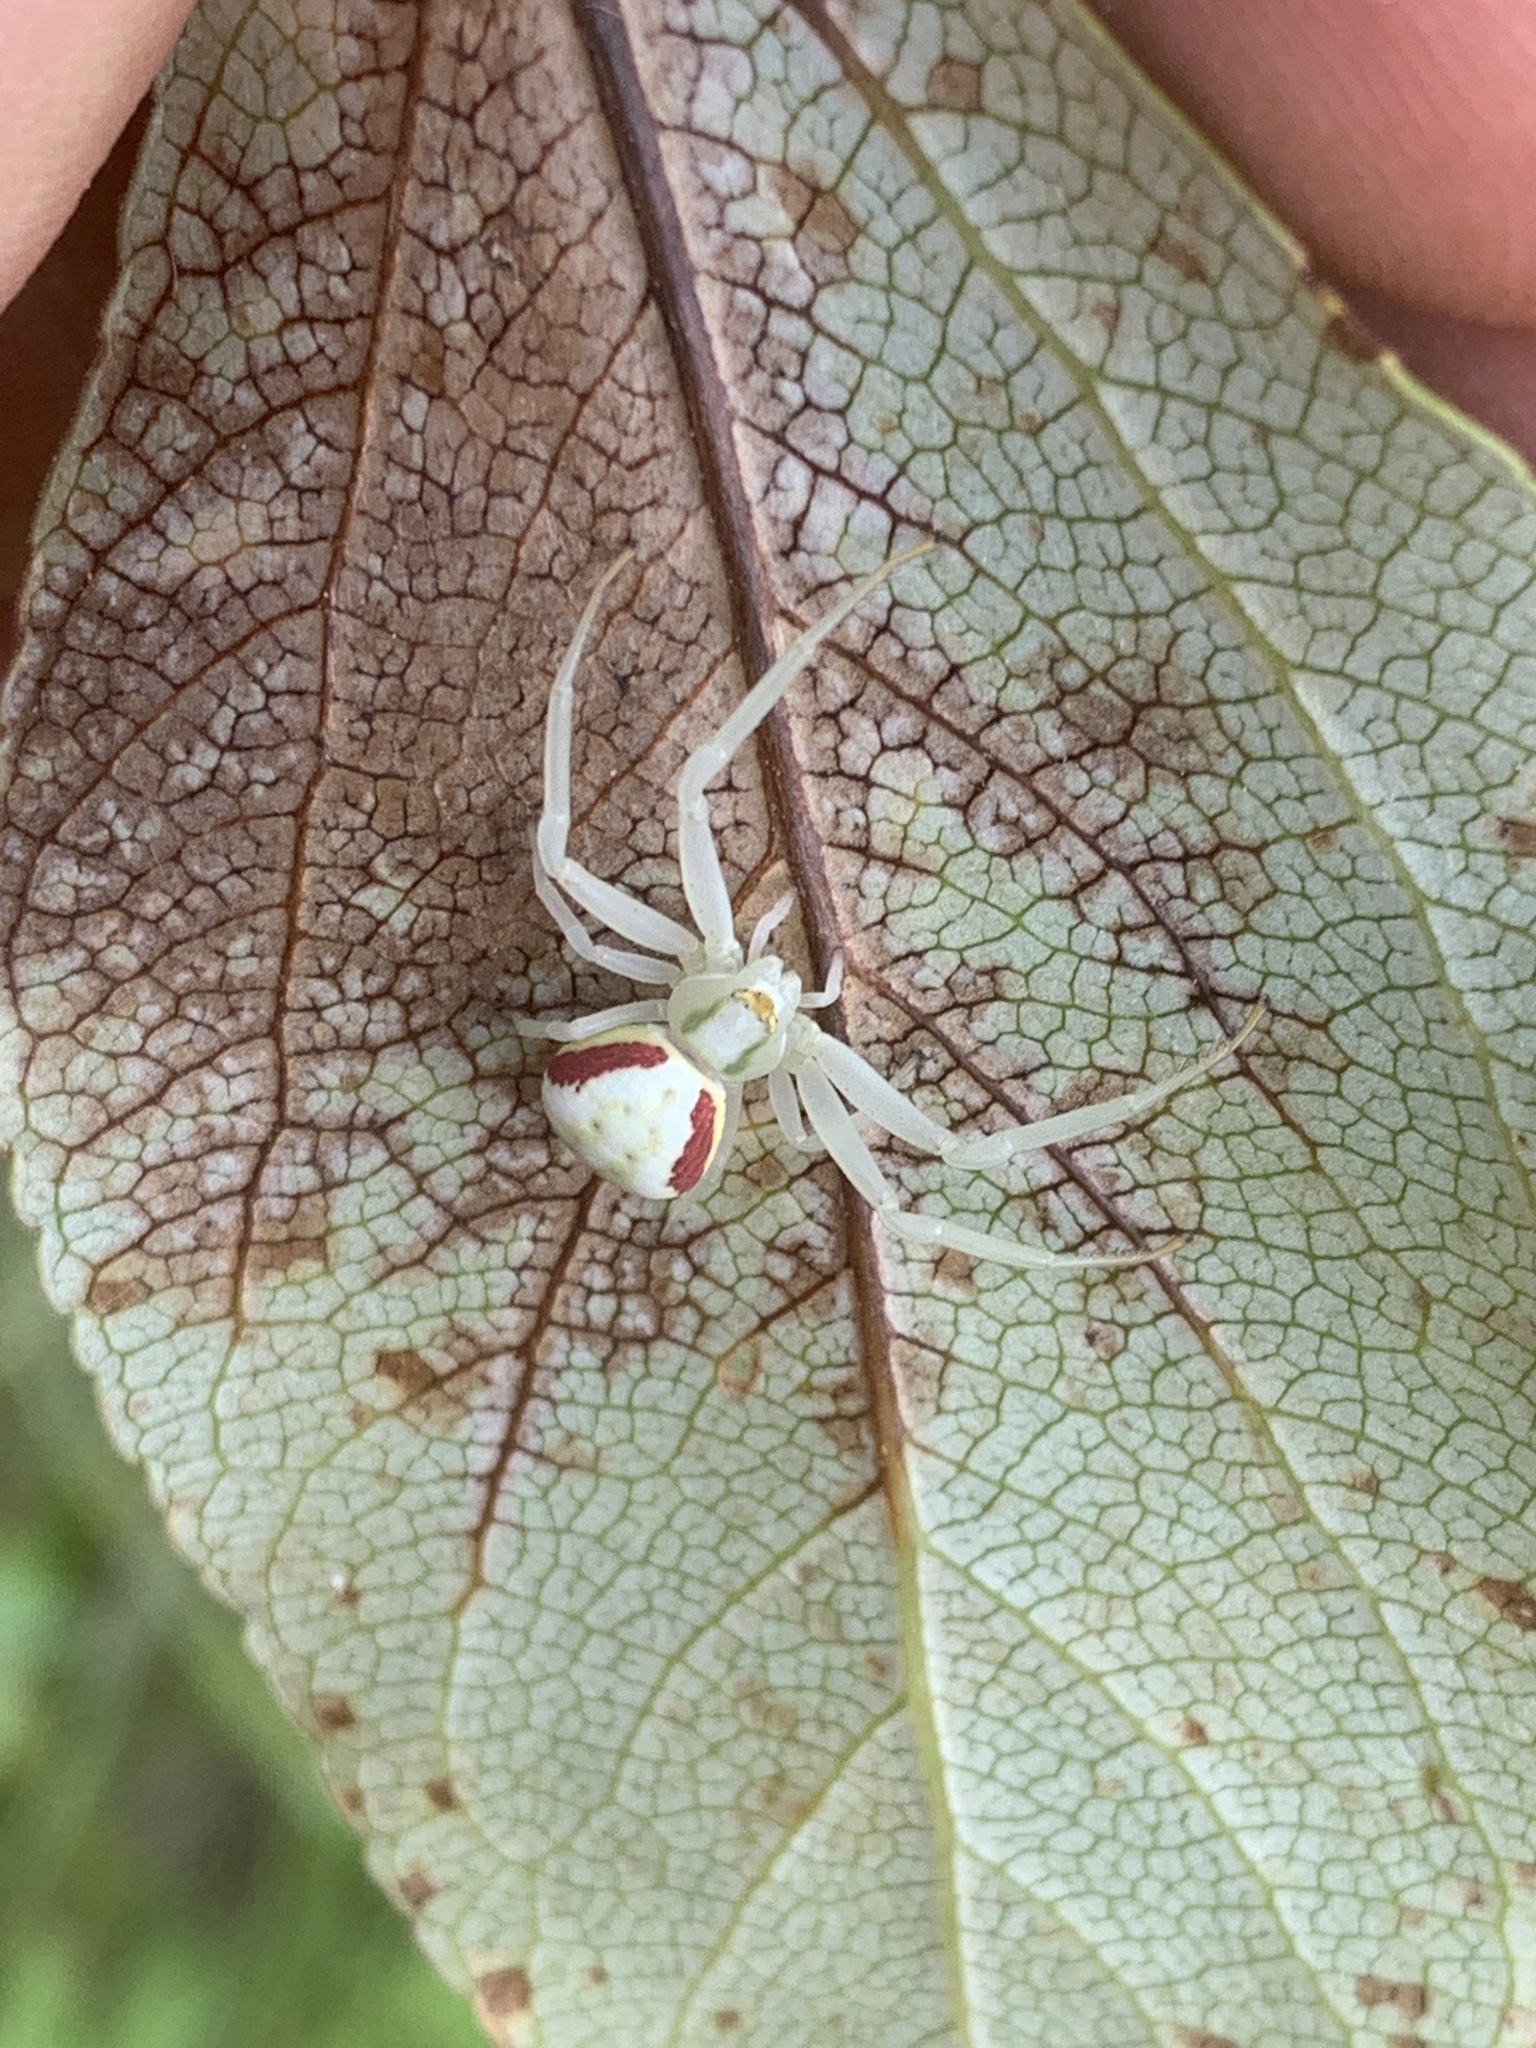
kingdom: Animalia
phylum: Arthropoda
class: Arachnida
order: Araneae
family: Thomisidae
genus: Misumena
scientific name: Misumena vatia
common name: Goldenrod crab spider
